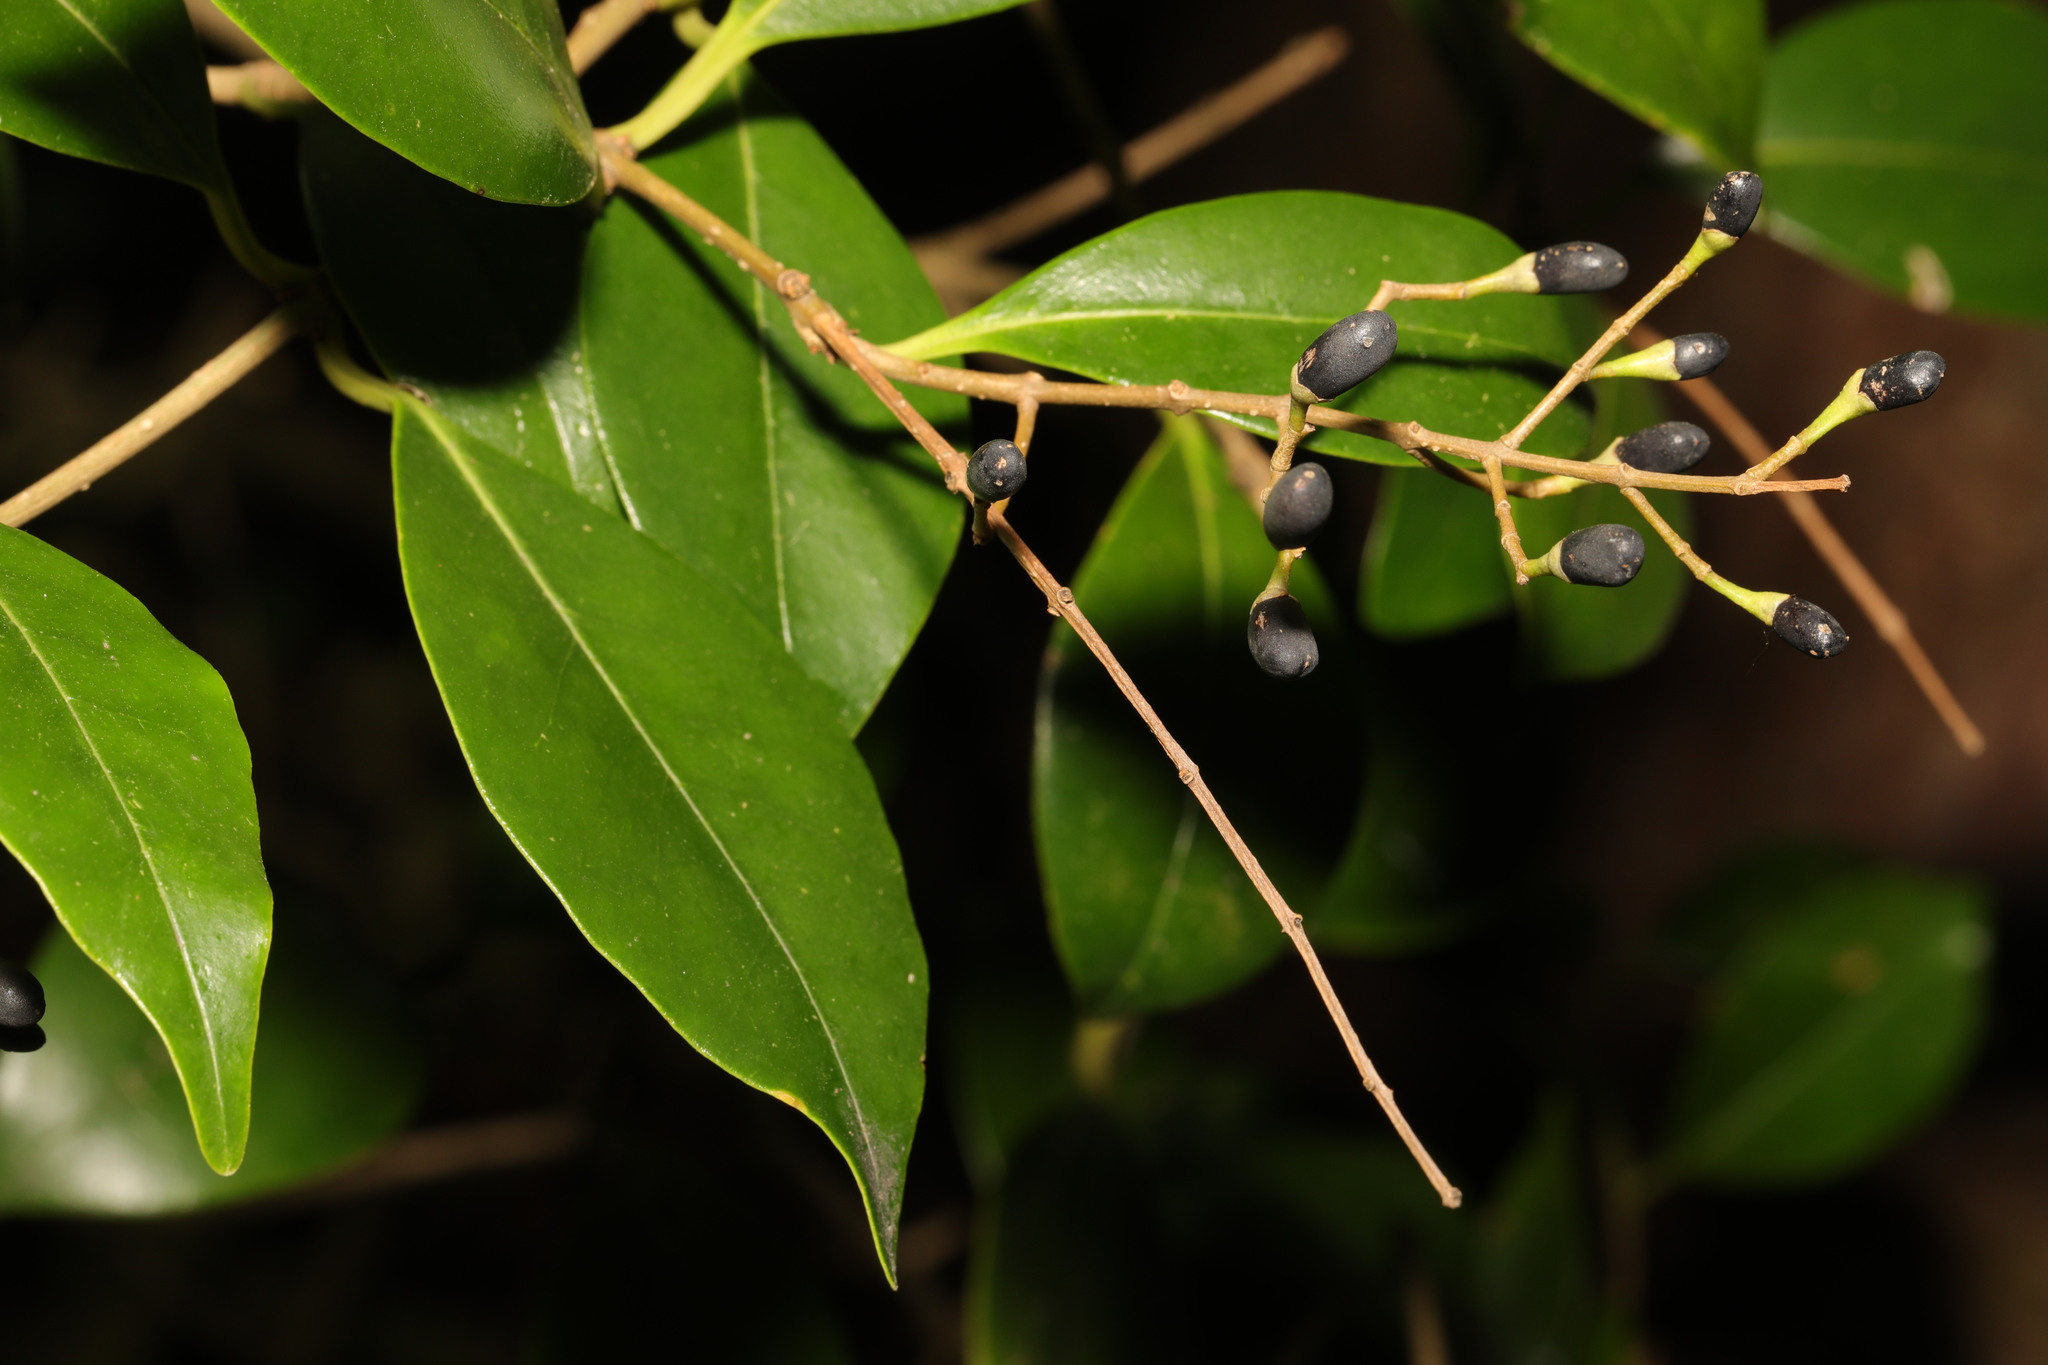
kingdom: Plantae
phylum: Tracheophyta
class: Magnoliopsida
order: Lamiales
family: Oleaceae
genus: Ligustrum
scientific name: Ligustrum japonicum
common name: Japanese privet
